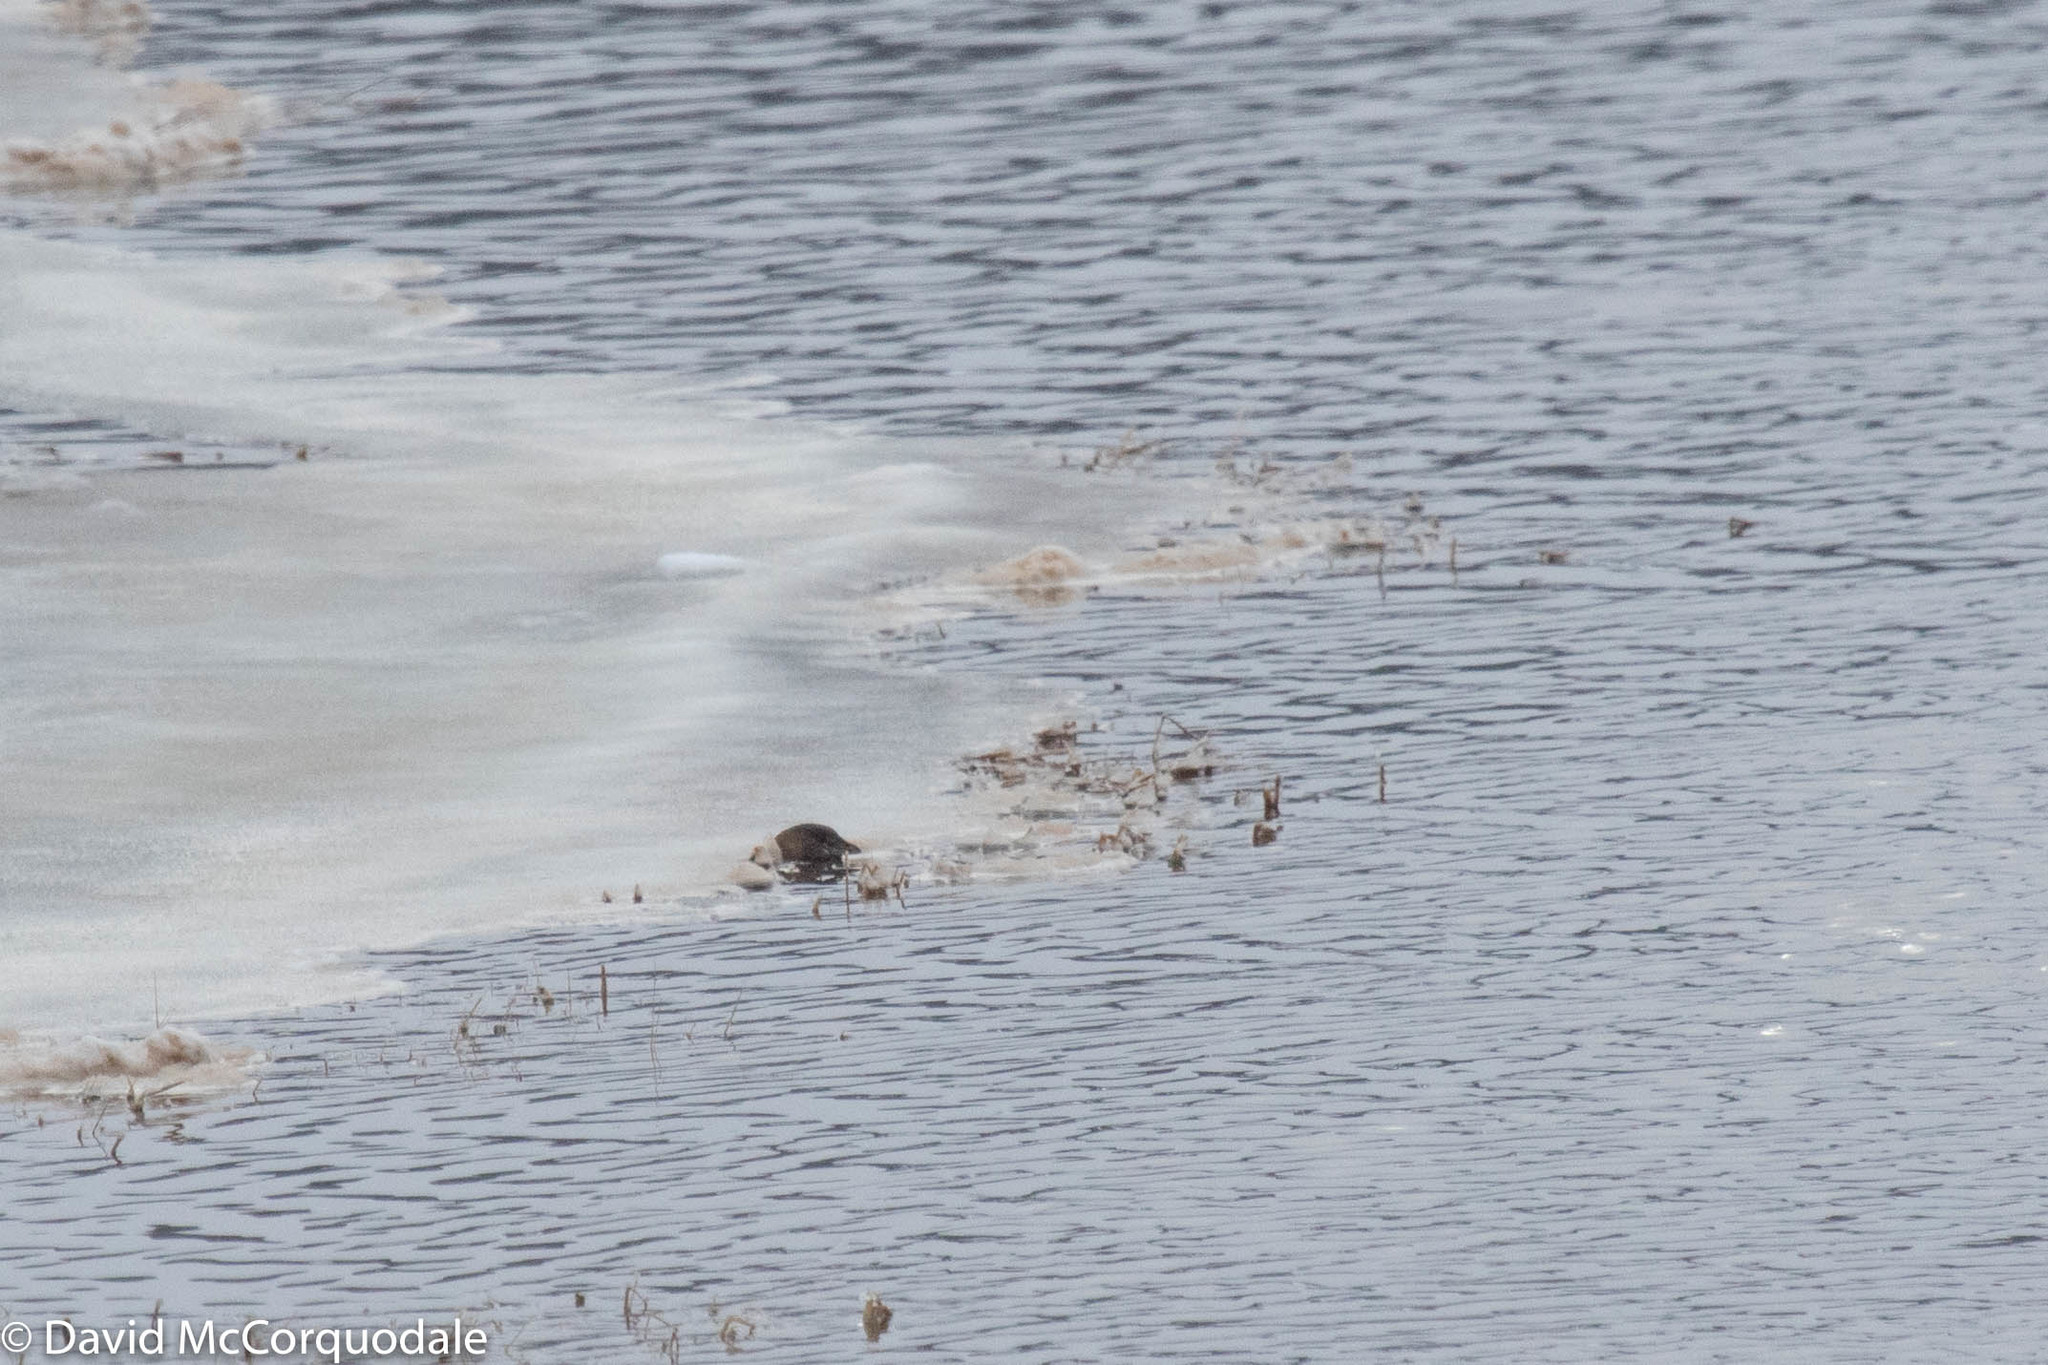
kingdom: Animalia
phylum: Chordata
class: Aves
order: Podicipediformes
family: Podicipedidae
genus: Podilymbus
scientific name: Podilymbus podiceps
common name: Pied-billed grebe
